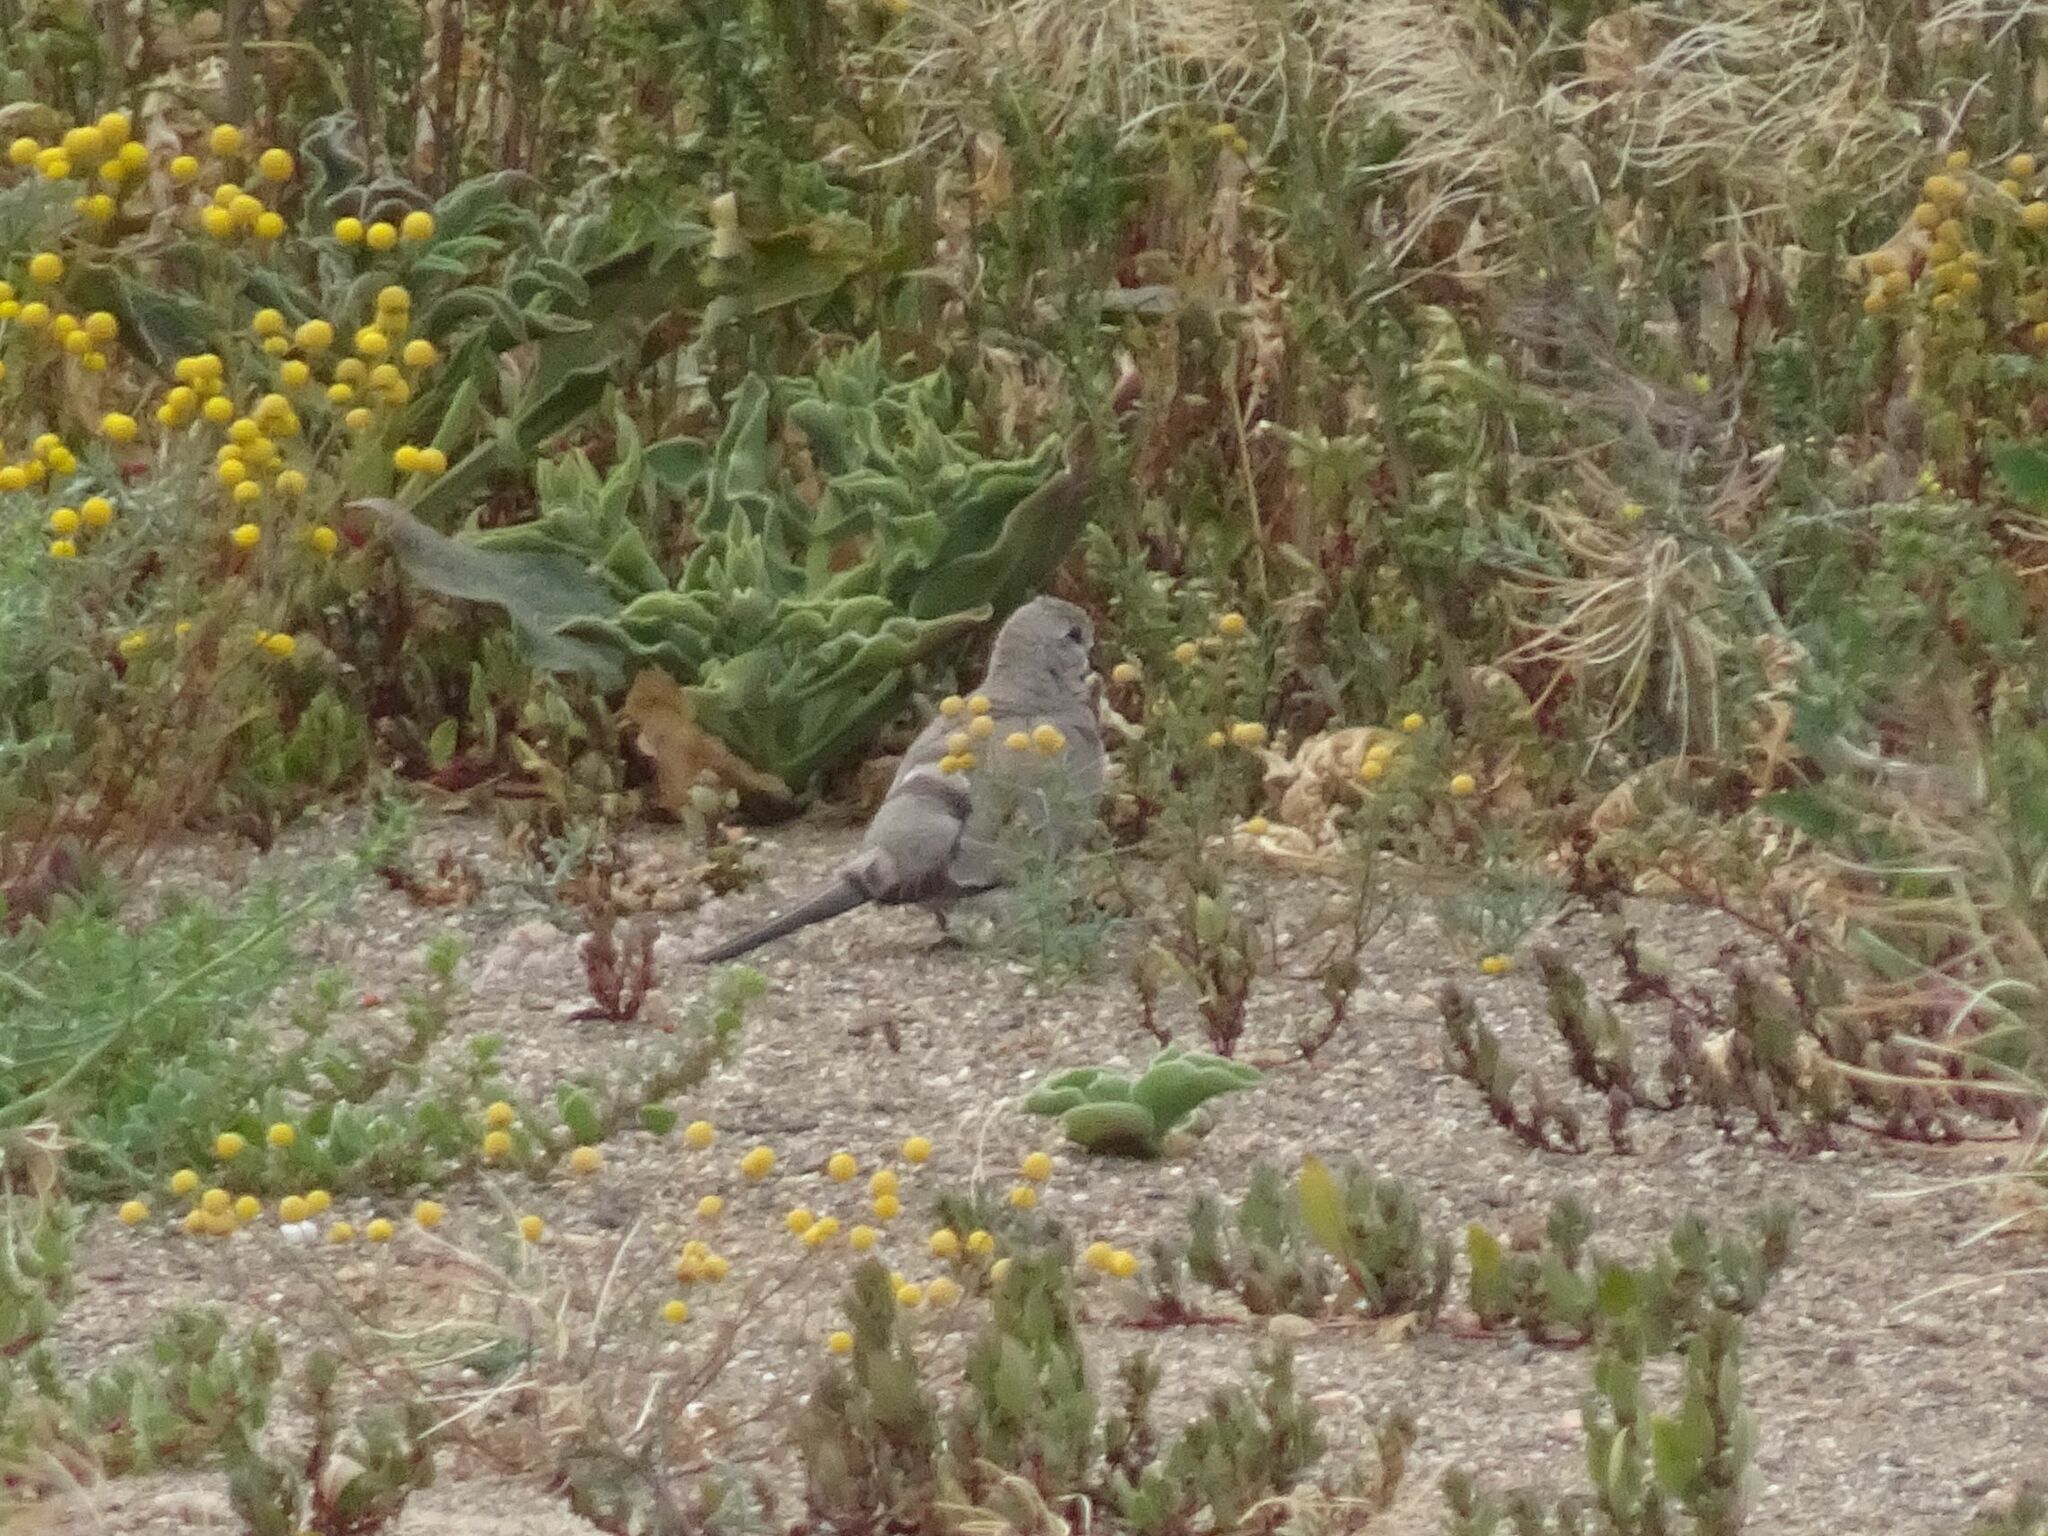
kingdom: Animalia
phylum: Chordata
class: Aves
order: Columbiformes
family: Columbidae
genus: Oena
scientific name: Oena capensis
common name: Namaqua dove
